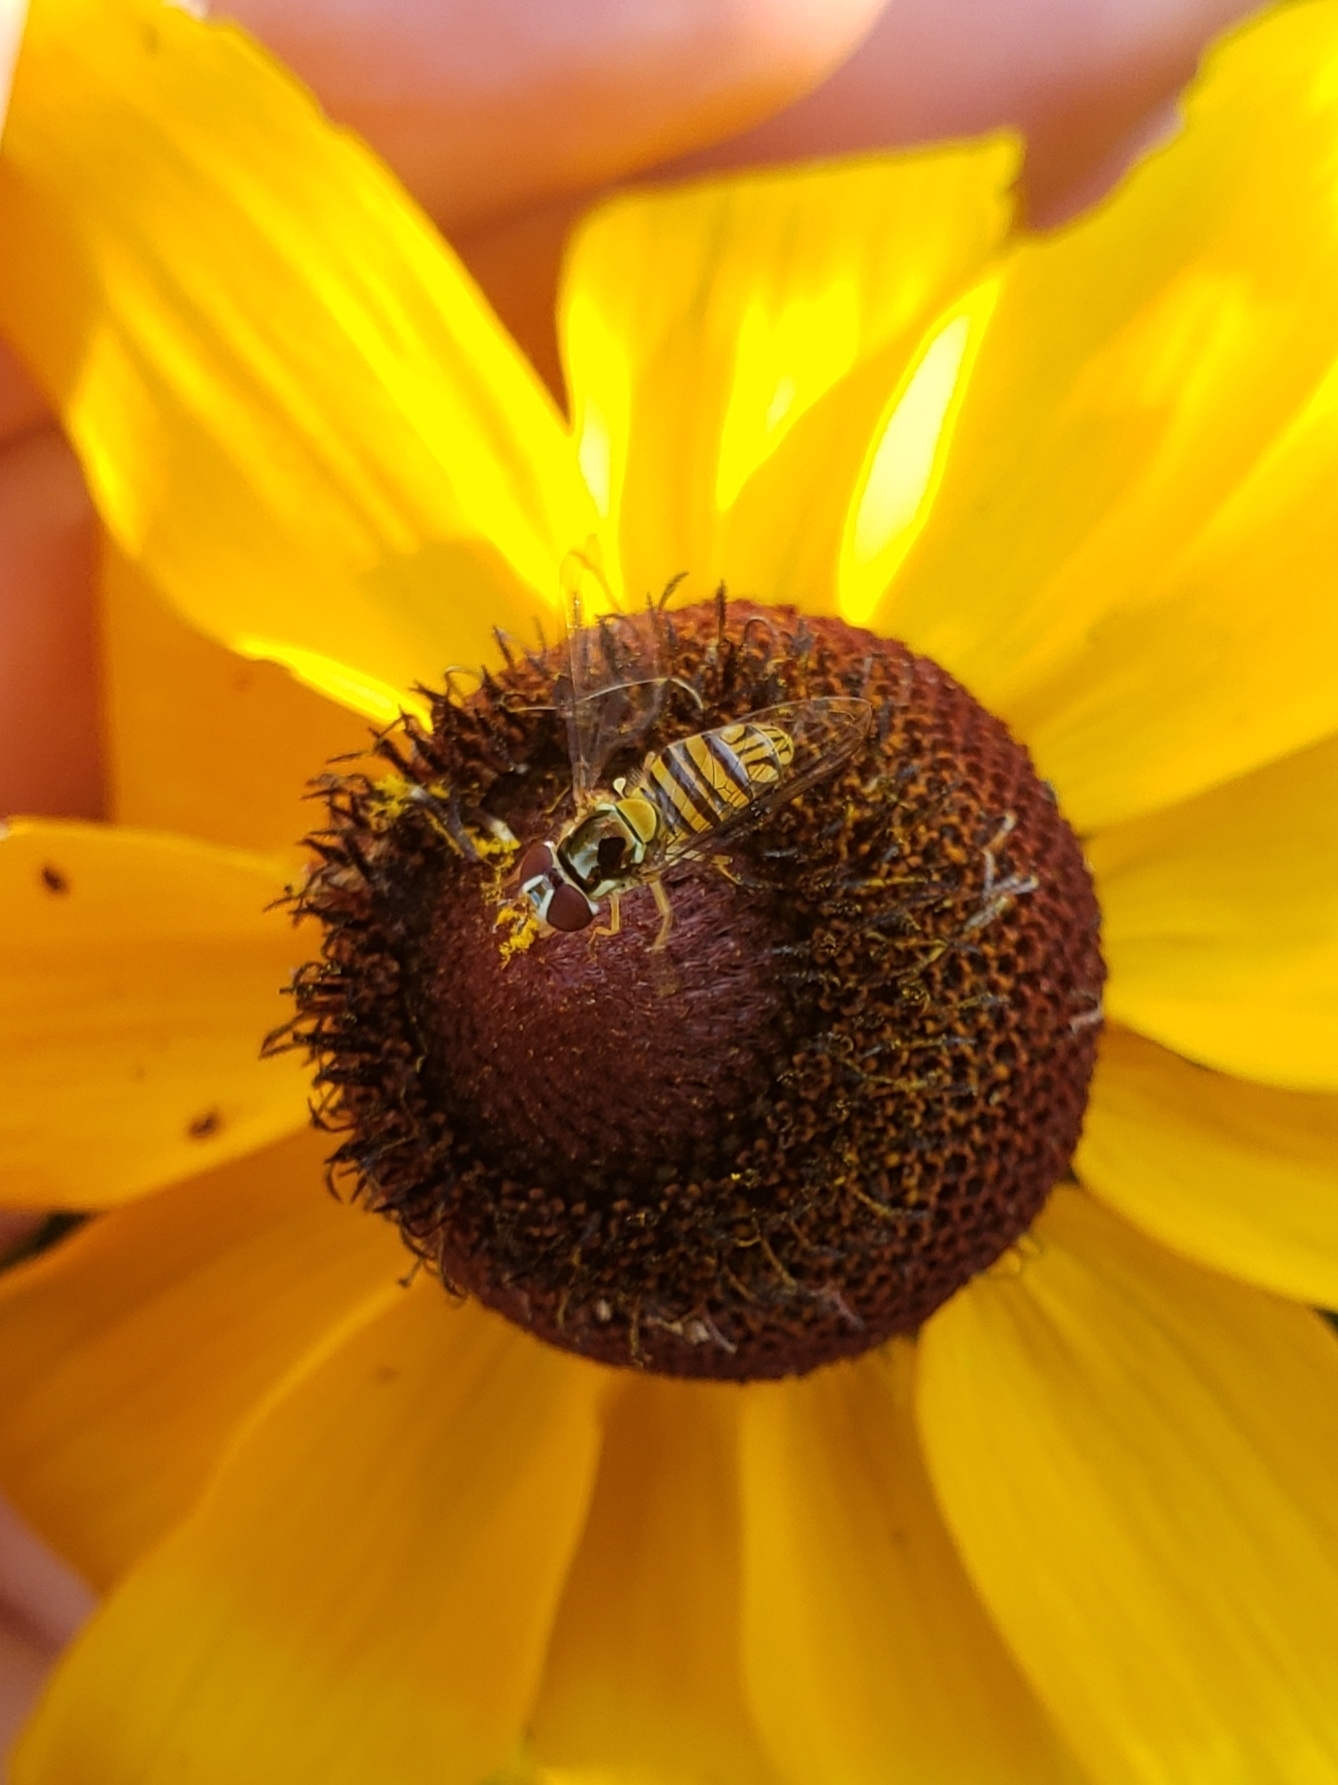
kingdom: Animalia
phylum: Arthropoda
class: Insecta
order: Diptera
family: Syrphidae
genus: Allograpta
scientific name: Allograpta obliqua
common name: Common oblique syrphid
